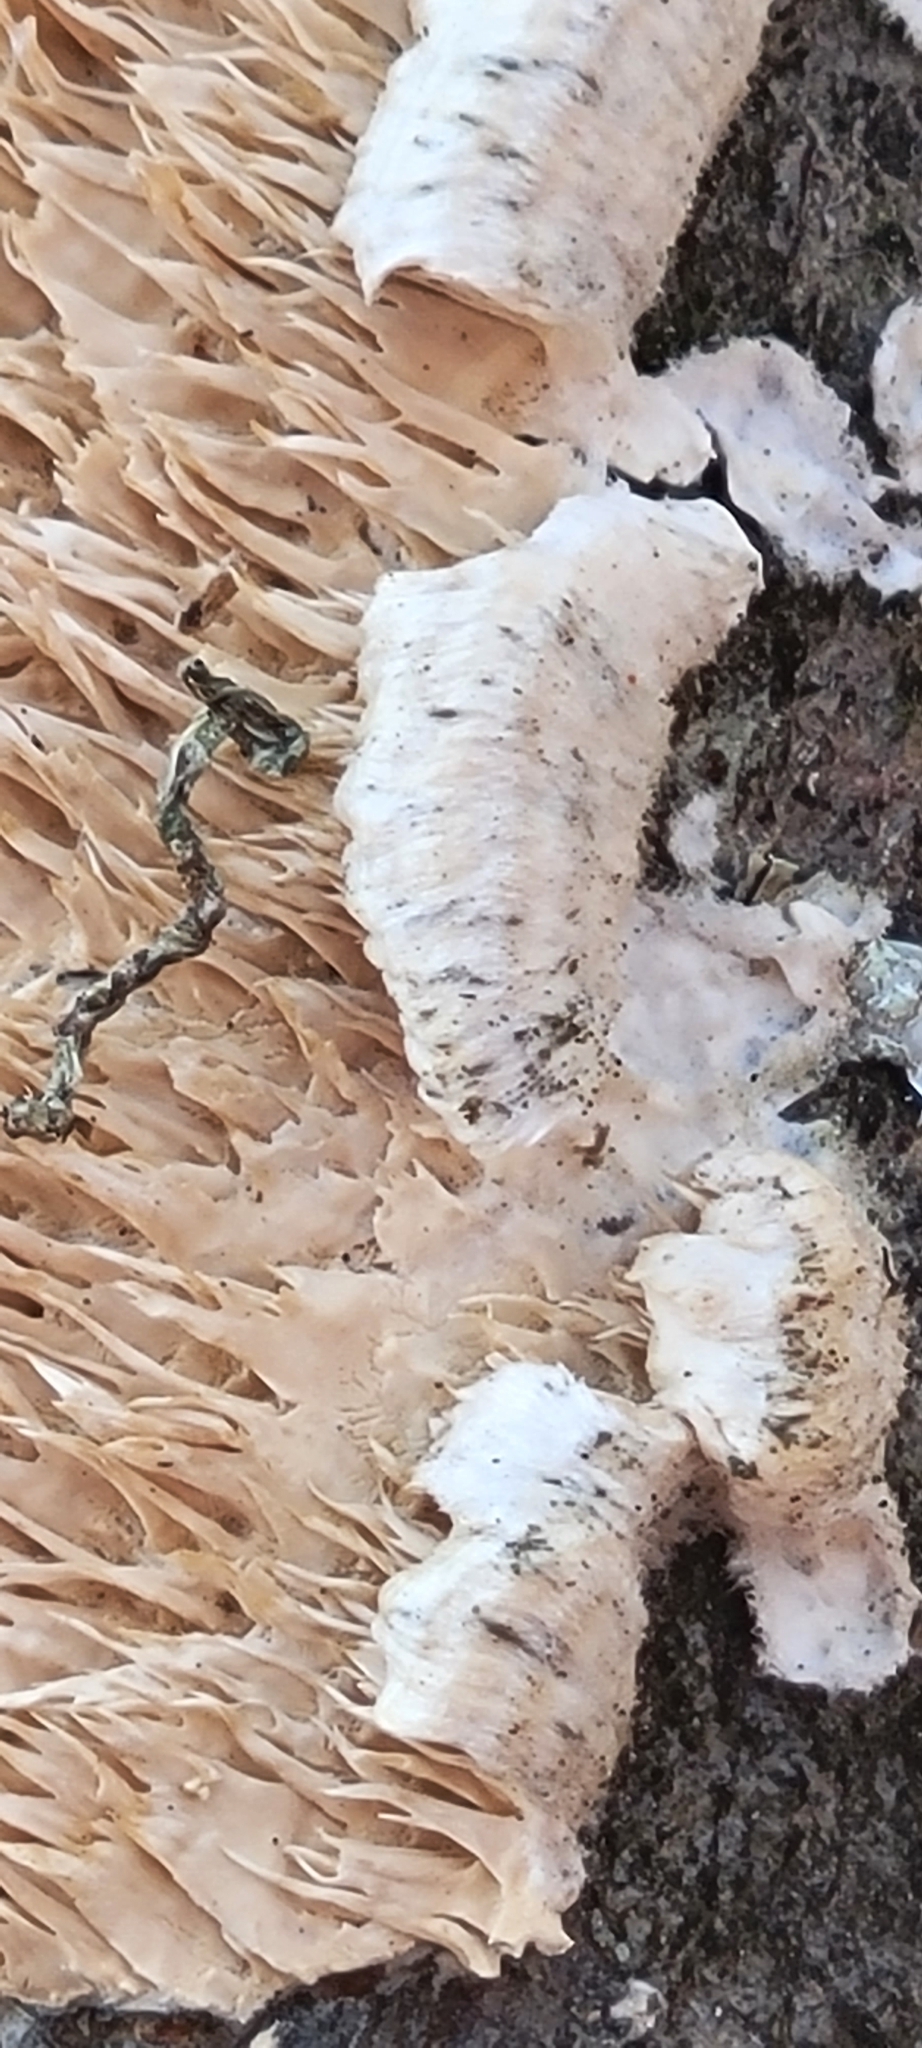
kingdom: Fungi
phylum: Basidiomycota
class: Agaricomycetes
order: Polyporales
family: Irpicaceae
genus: Irpex
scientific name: Irpex lacteus
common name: Milk-white toothed polypore
